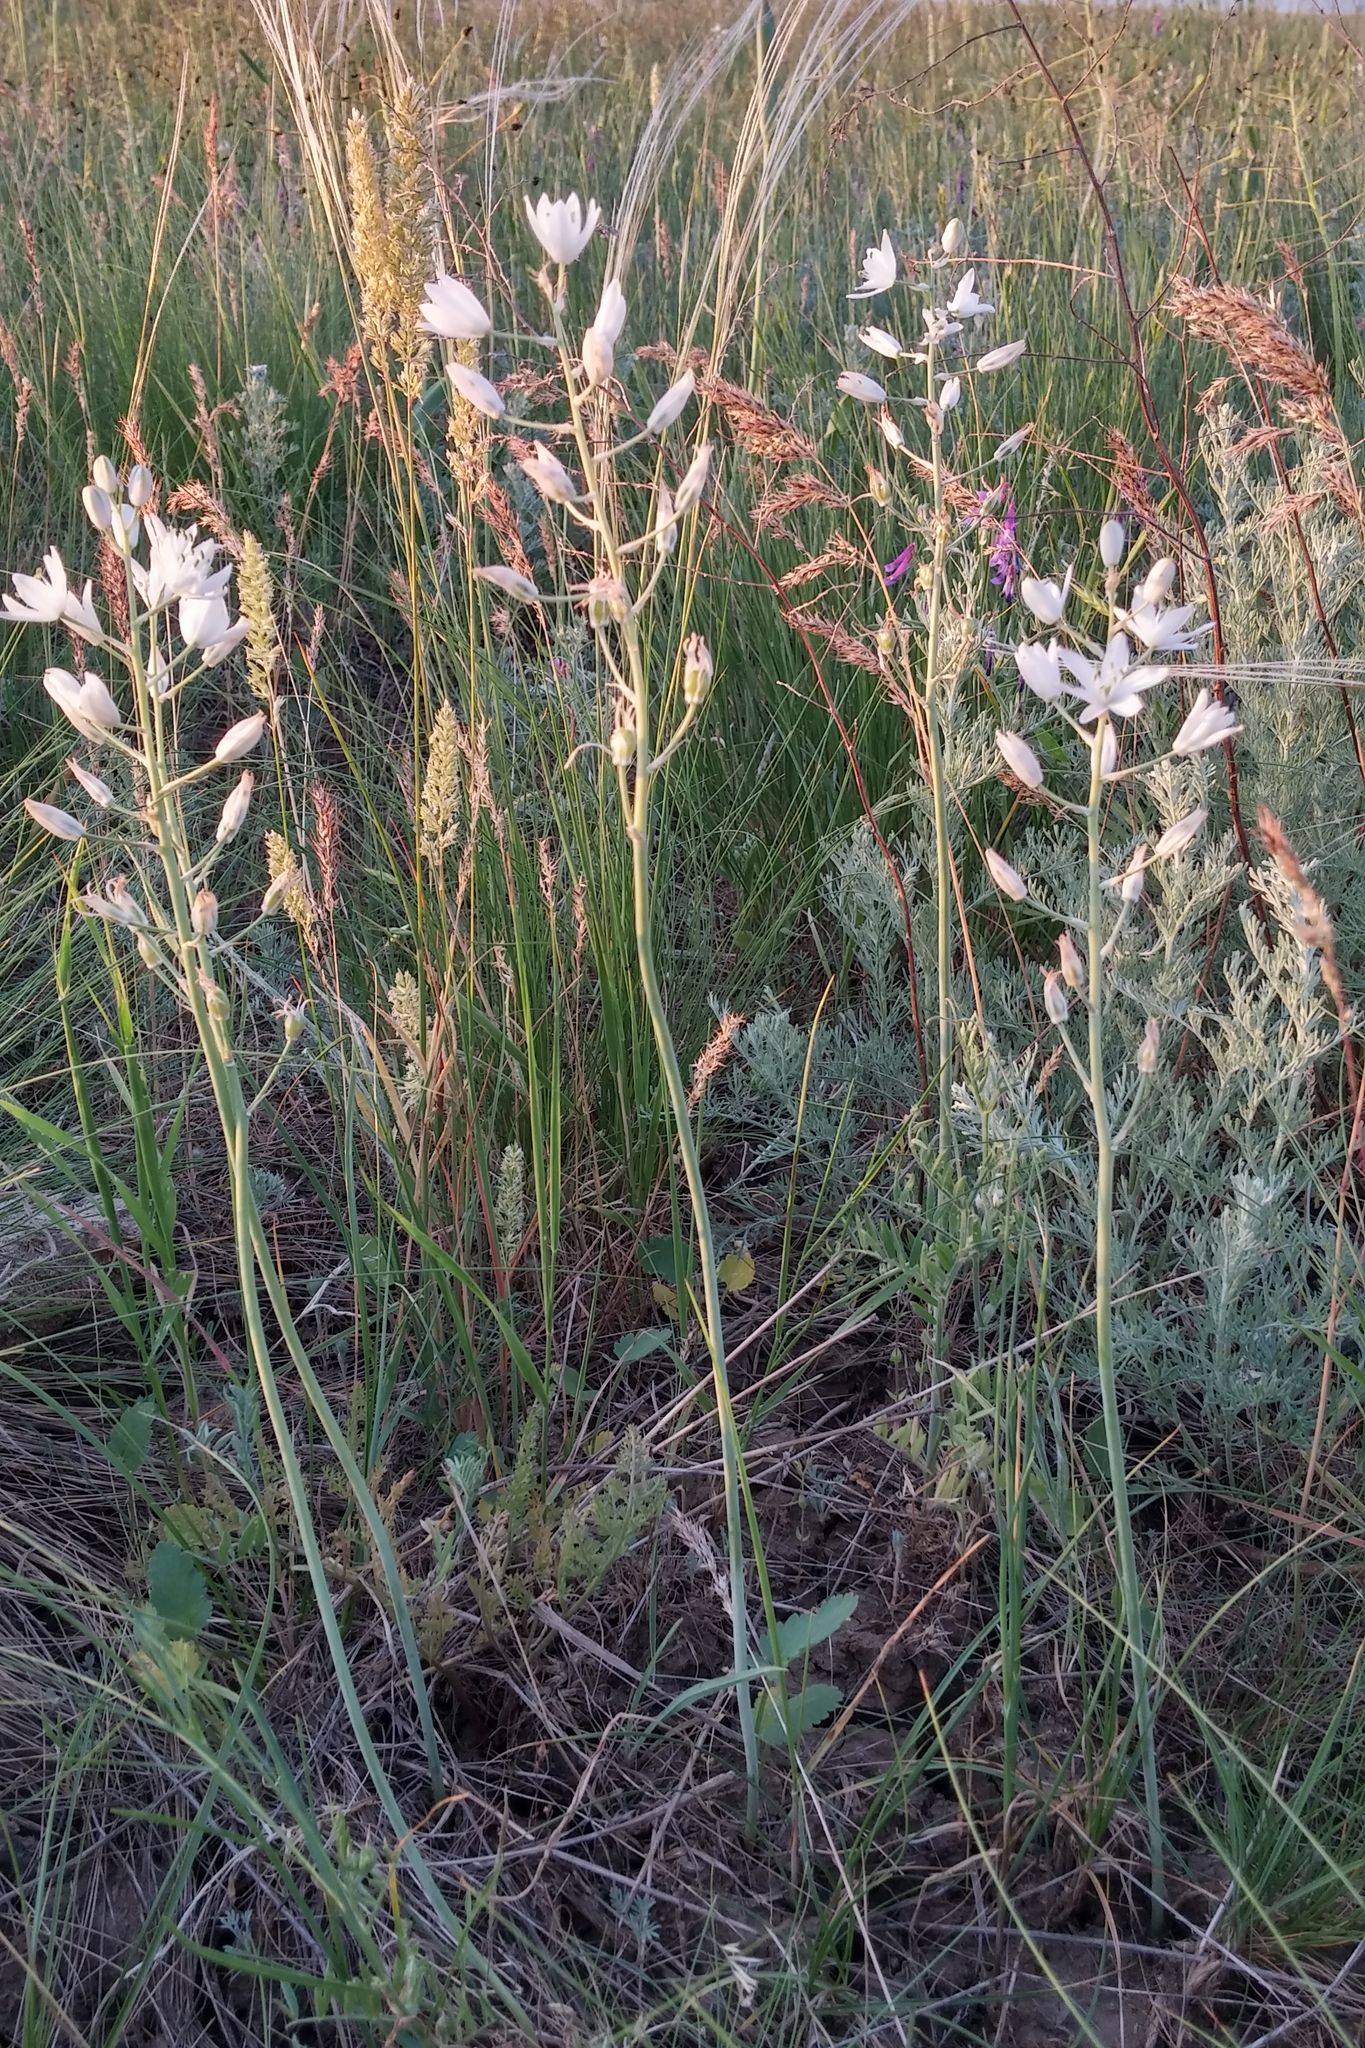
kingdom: Plantae
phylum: Tracheophyta
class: Liliopsida
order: Asparagales
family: Asparagaceae
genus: Ornithogalum
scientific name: Ornithogalum fischerianum
